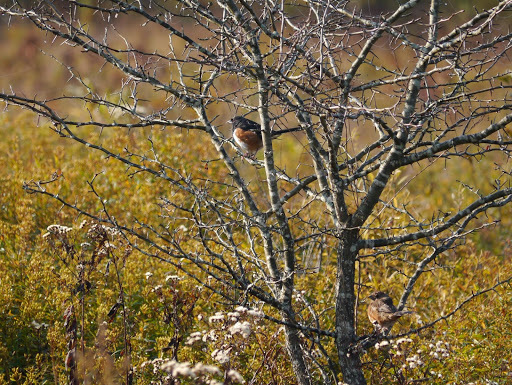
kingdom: Animalia
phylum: Chordata
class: Aves
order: Passeriformes
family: Passerellidae
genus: Pipilo
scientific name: Pipilo erythrophthalmus
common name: Eastern towhee
